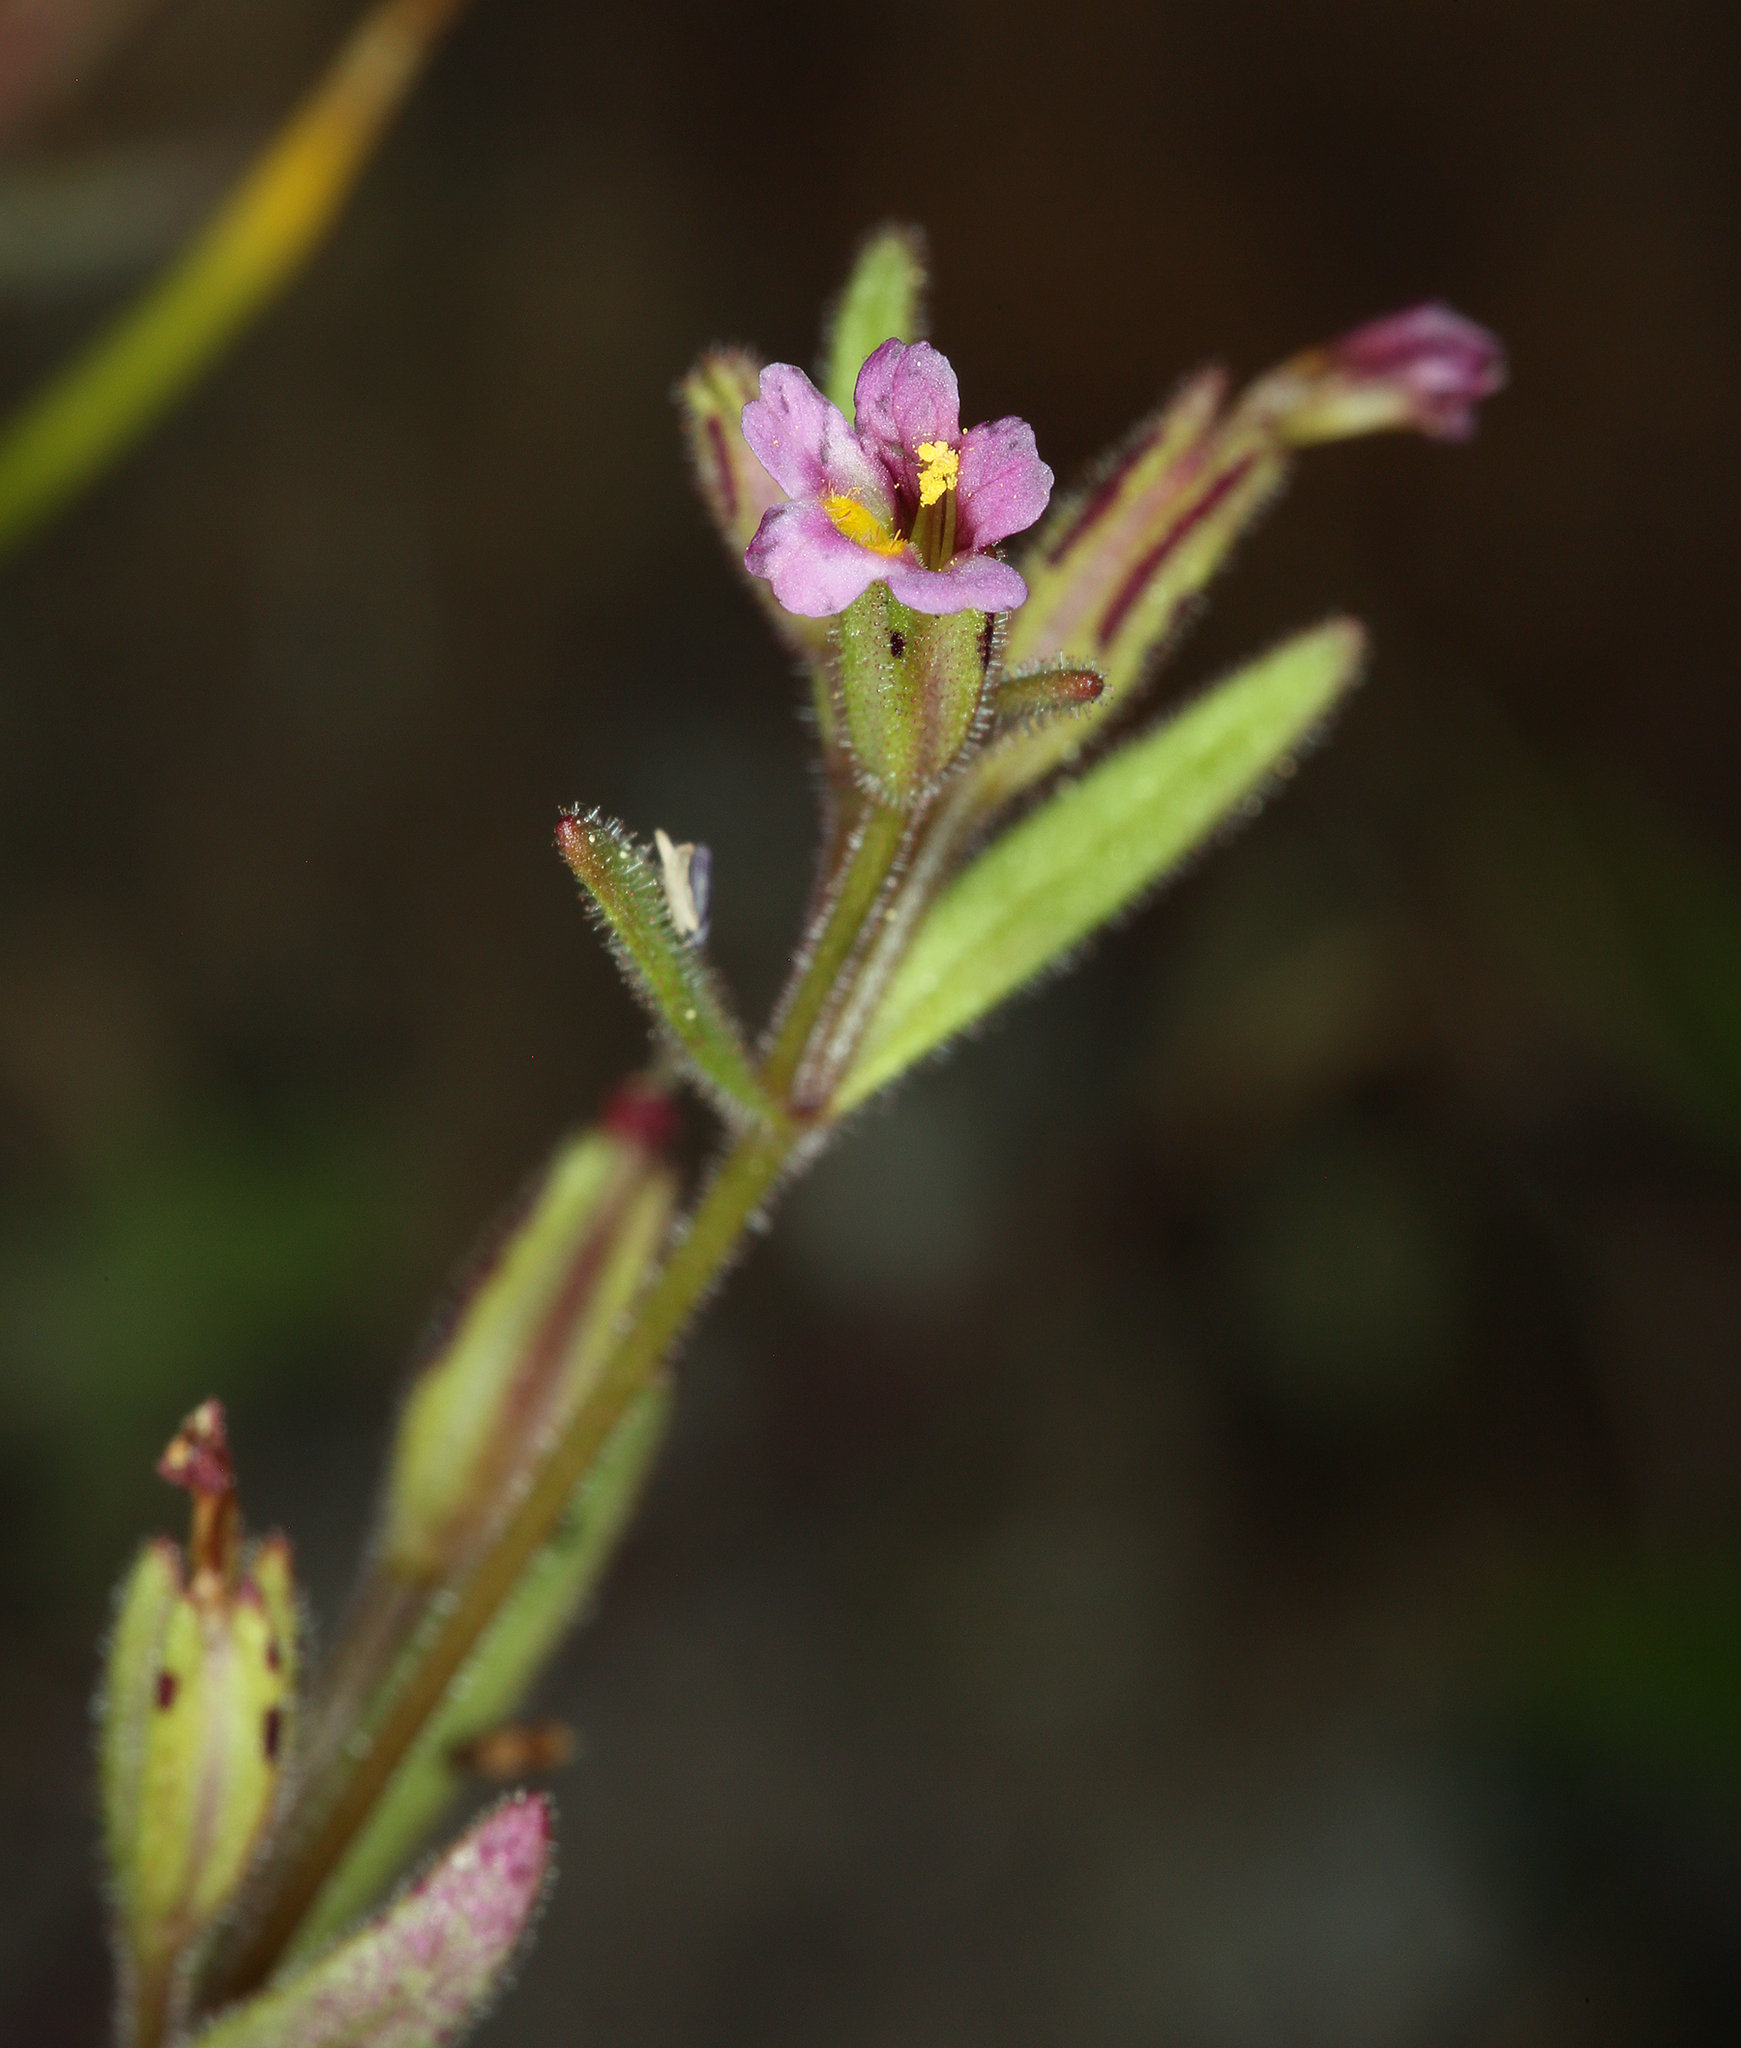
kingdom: Plantae
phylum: Tracheophyta
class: Magnoliopsida
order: Lamiales
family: Phrymaceae
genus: Erythranthe
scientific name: Erythranthe breweri
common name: Brewer's monkeyflower
